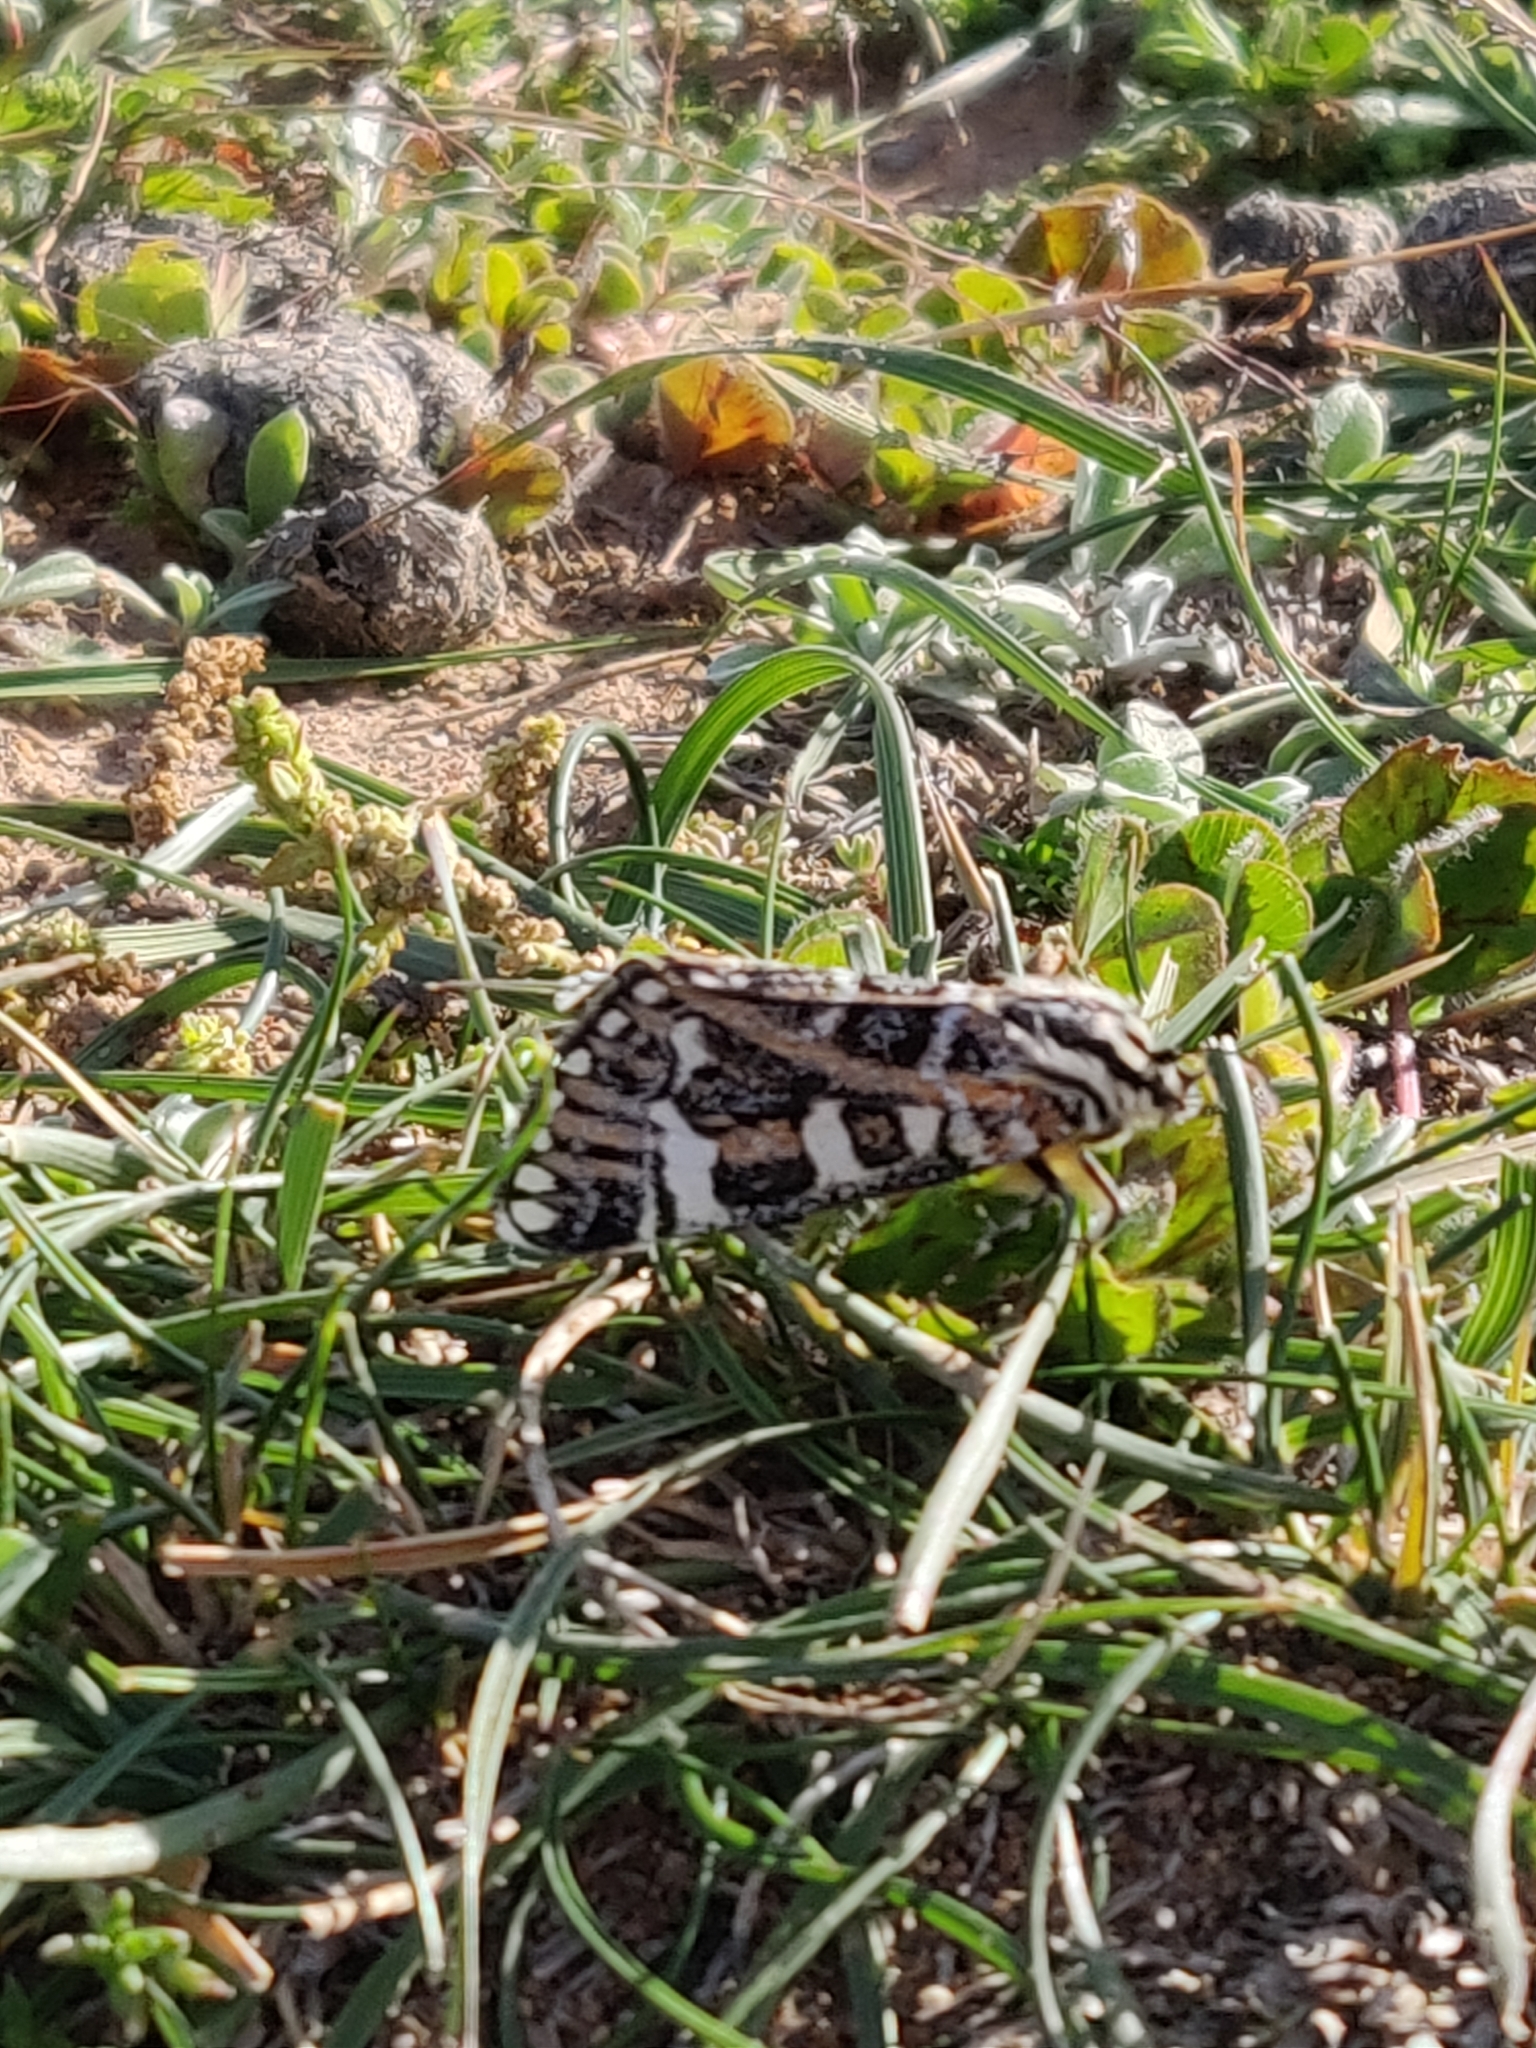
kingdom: Animalia
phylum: Arthropoda
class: Insecta
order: Lepidoptera
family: Noctuidae
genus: Apina
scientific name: Apina callisto
